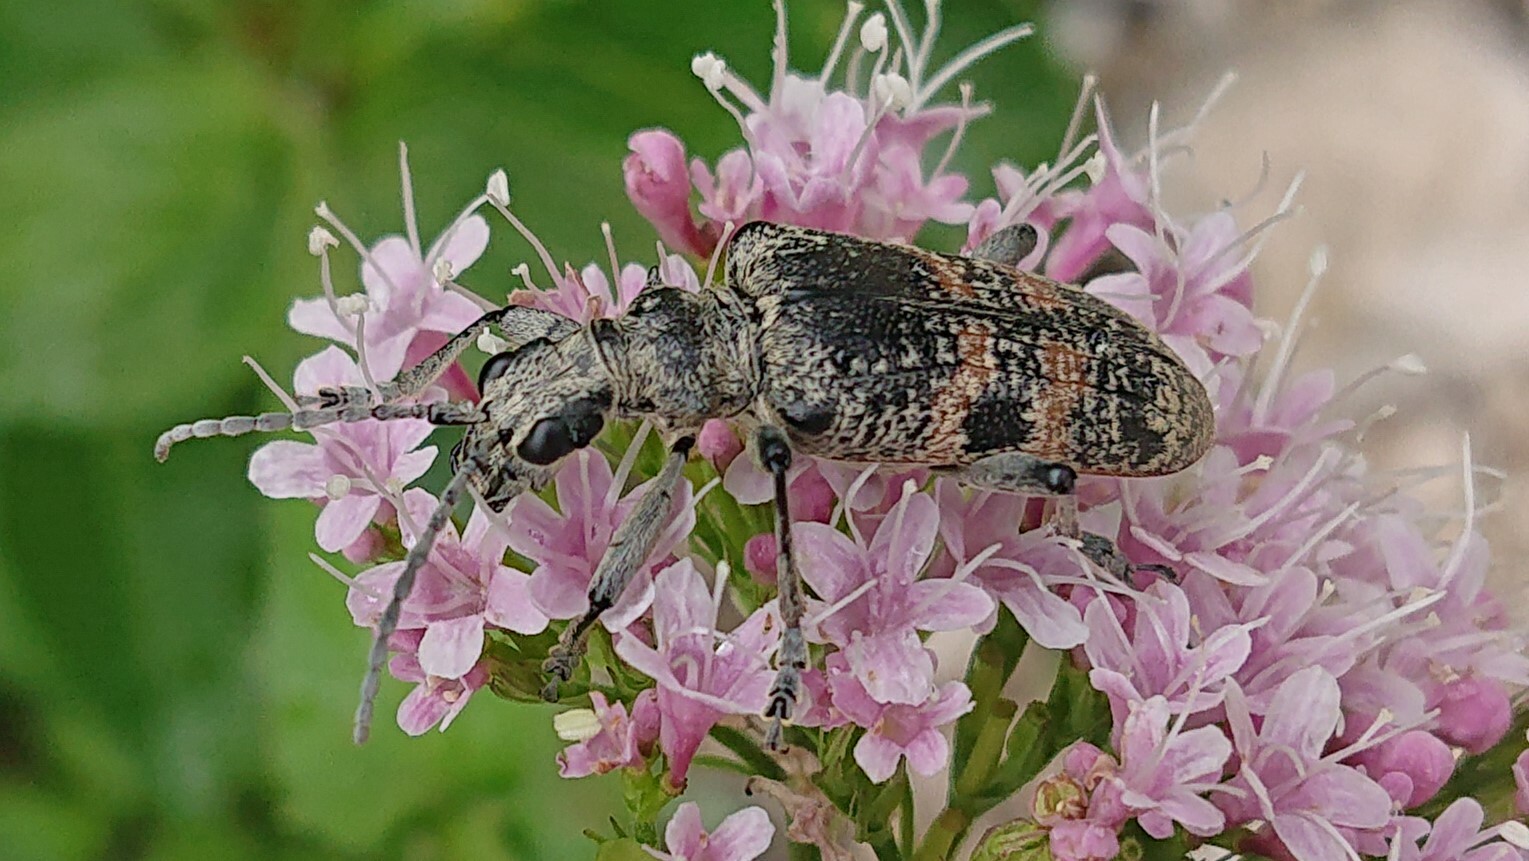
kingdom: Animalia
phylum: Arthropoda
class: Insecta
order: Coleoptera
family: Cerambycidae
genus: Rhagium
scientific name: Rhagium mordax
